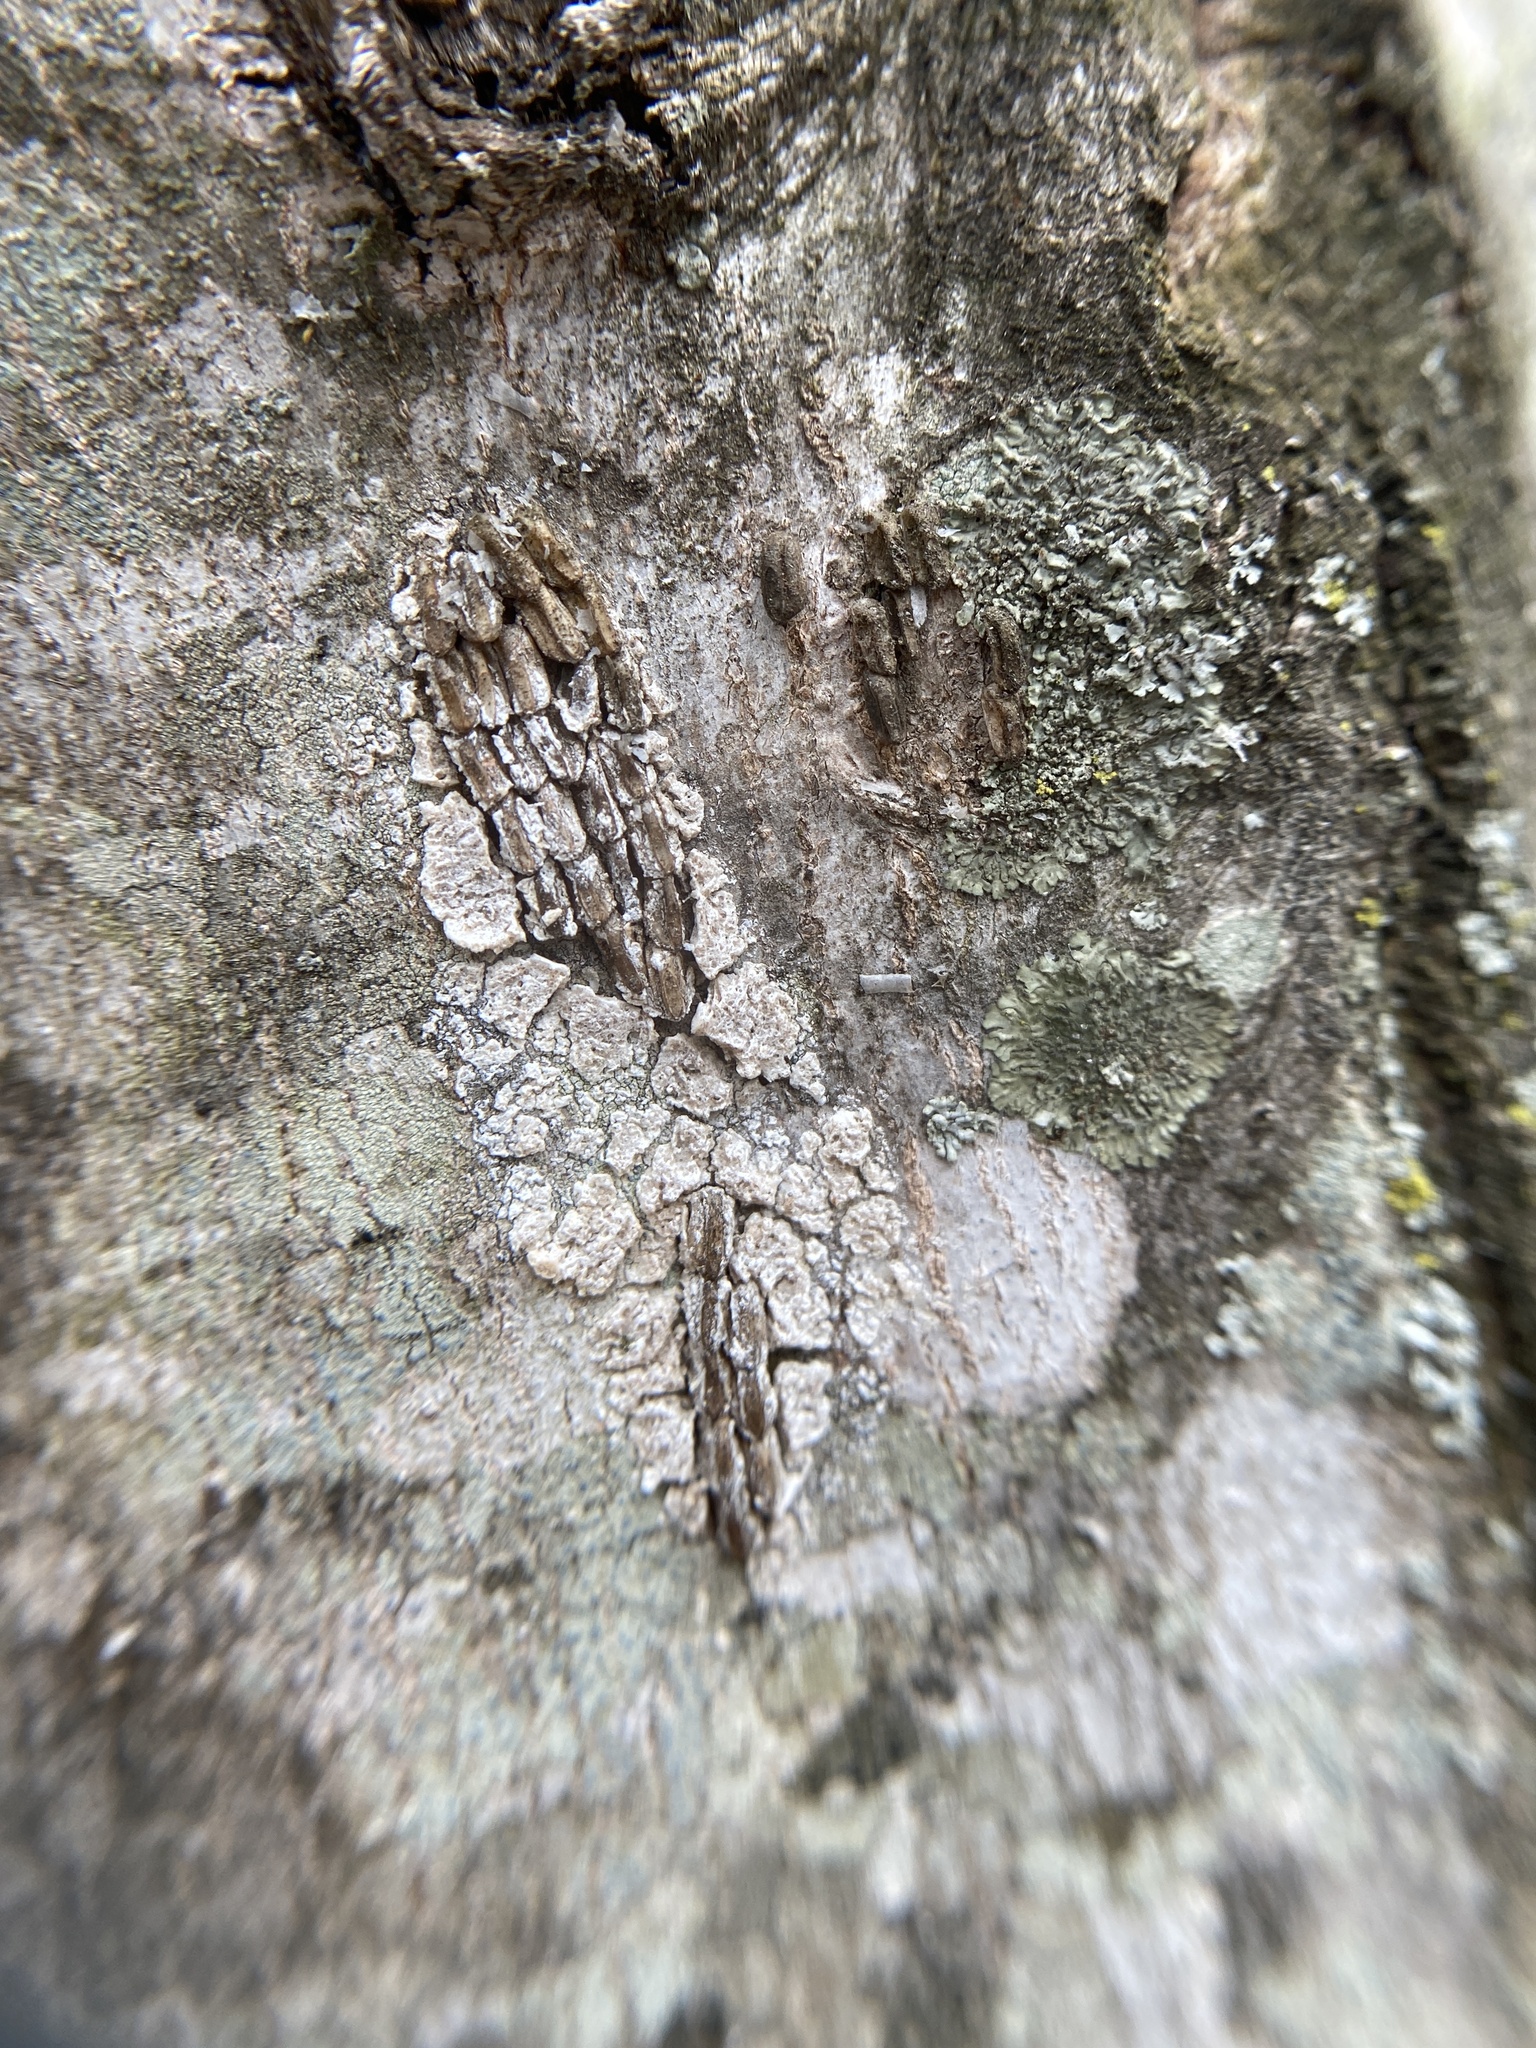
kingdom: Animalia
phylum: Arthropoda
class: Insecta
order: Hemiptera
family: Fulgoridae
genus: Lycorma
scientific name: Lycorma delicatula
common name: Spotted lanternfly
